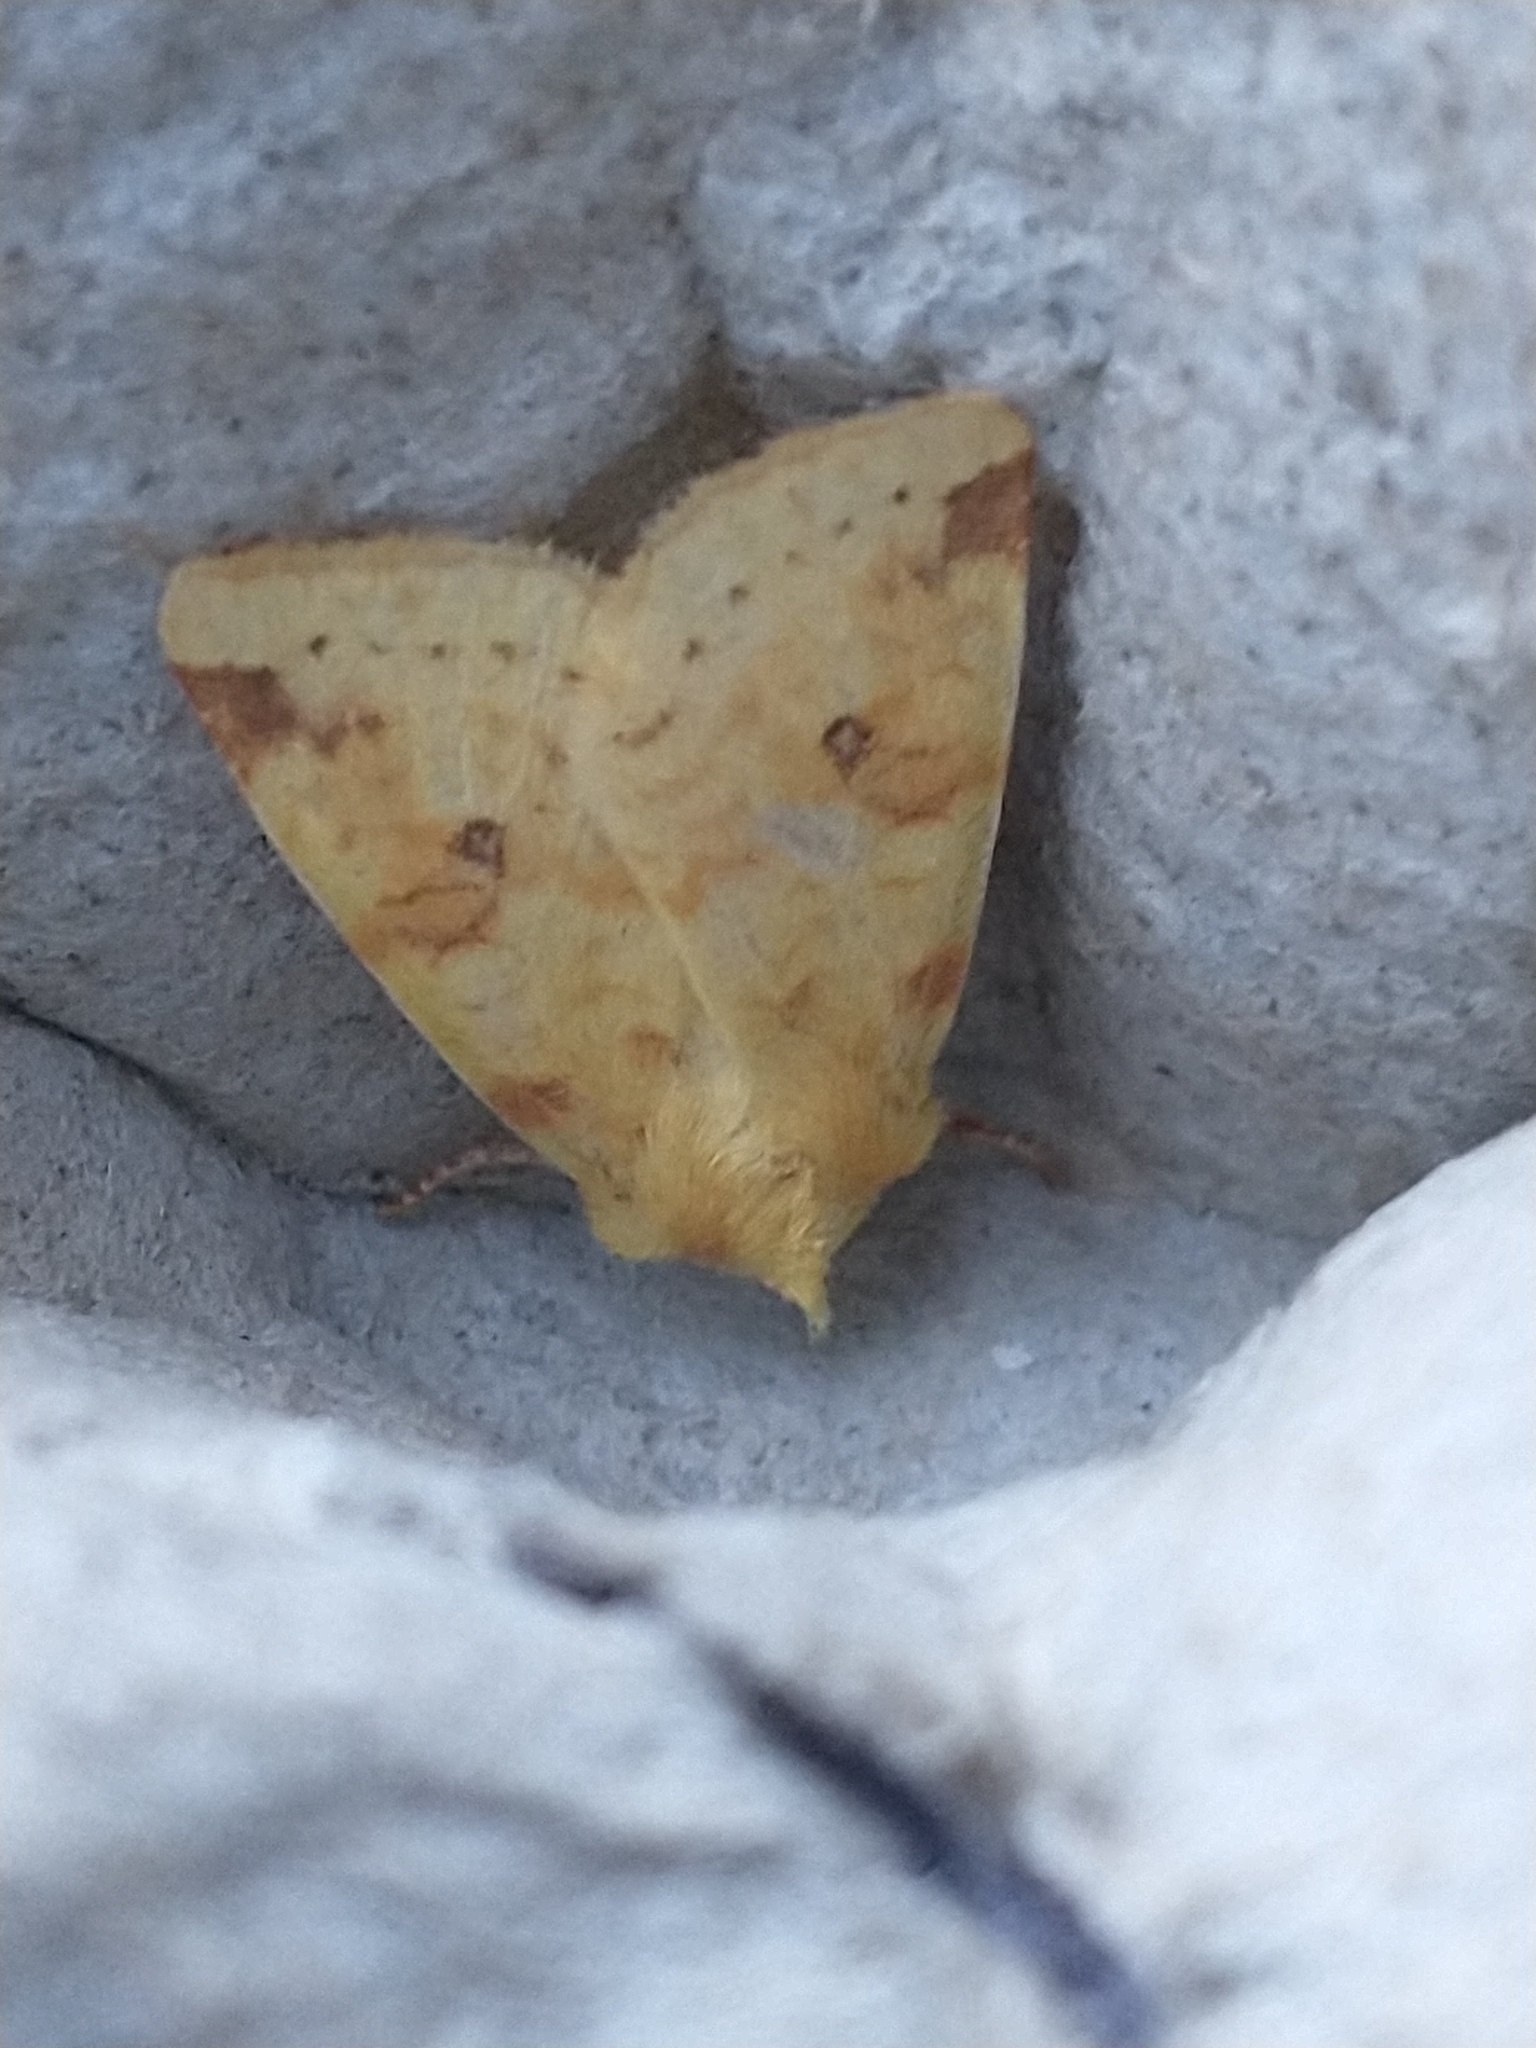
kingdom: Animalia
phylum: Arthropoda
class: Insecta
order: Lepidoptera
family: Noctuidae
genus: Xanthia
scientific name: Xanthia icteritia
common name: The sallow
